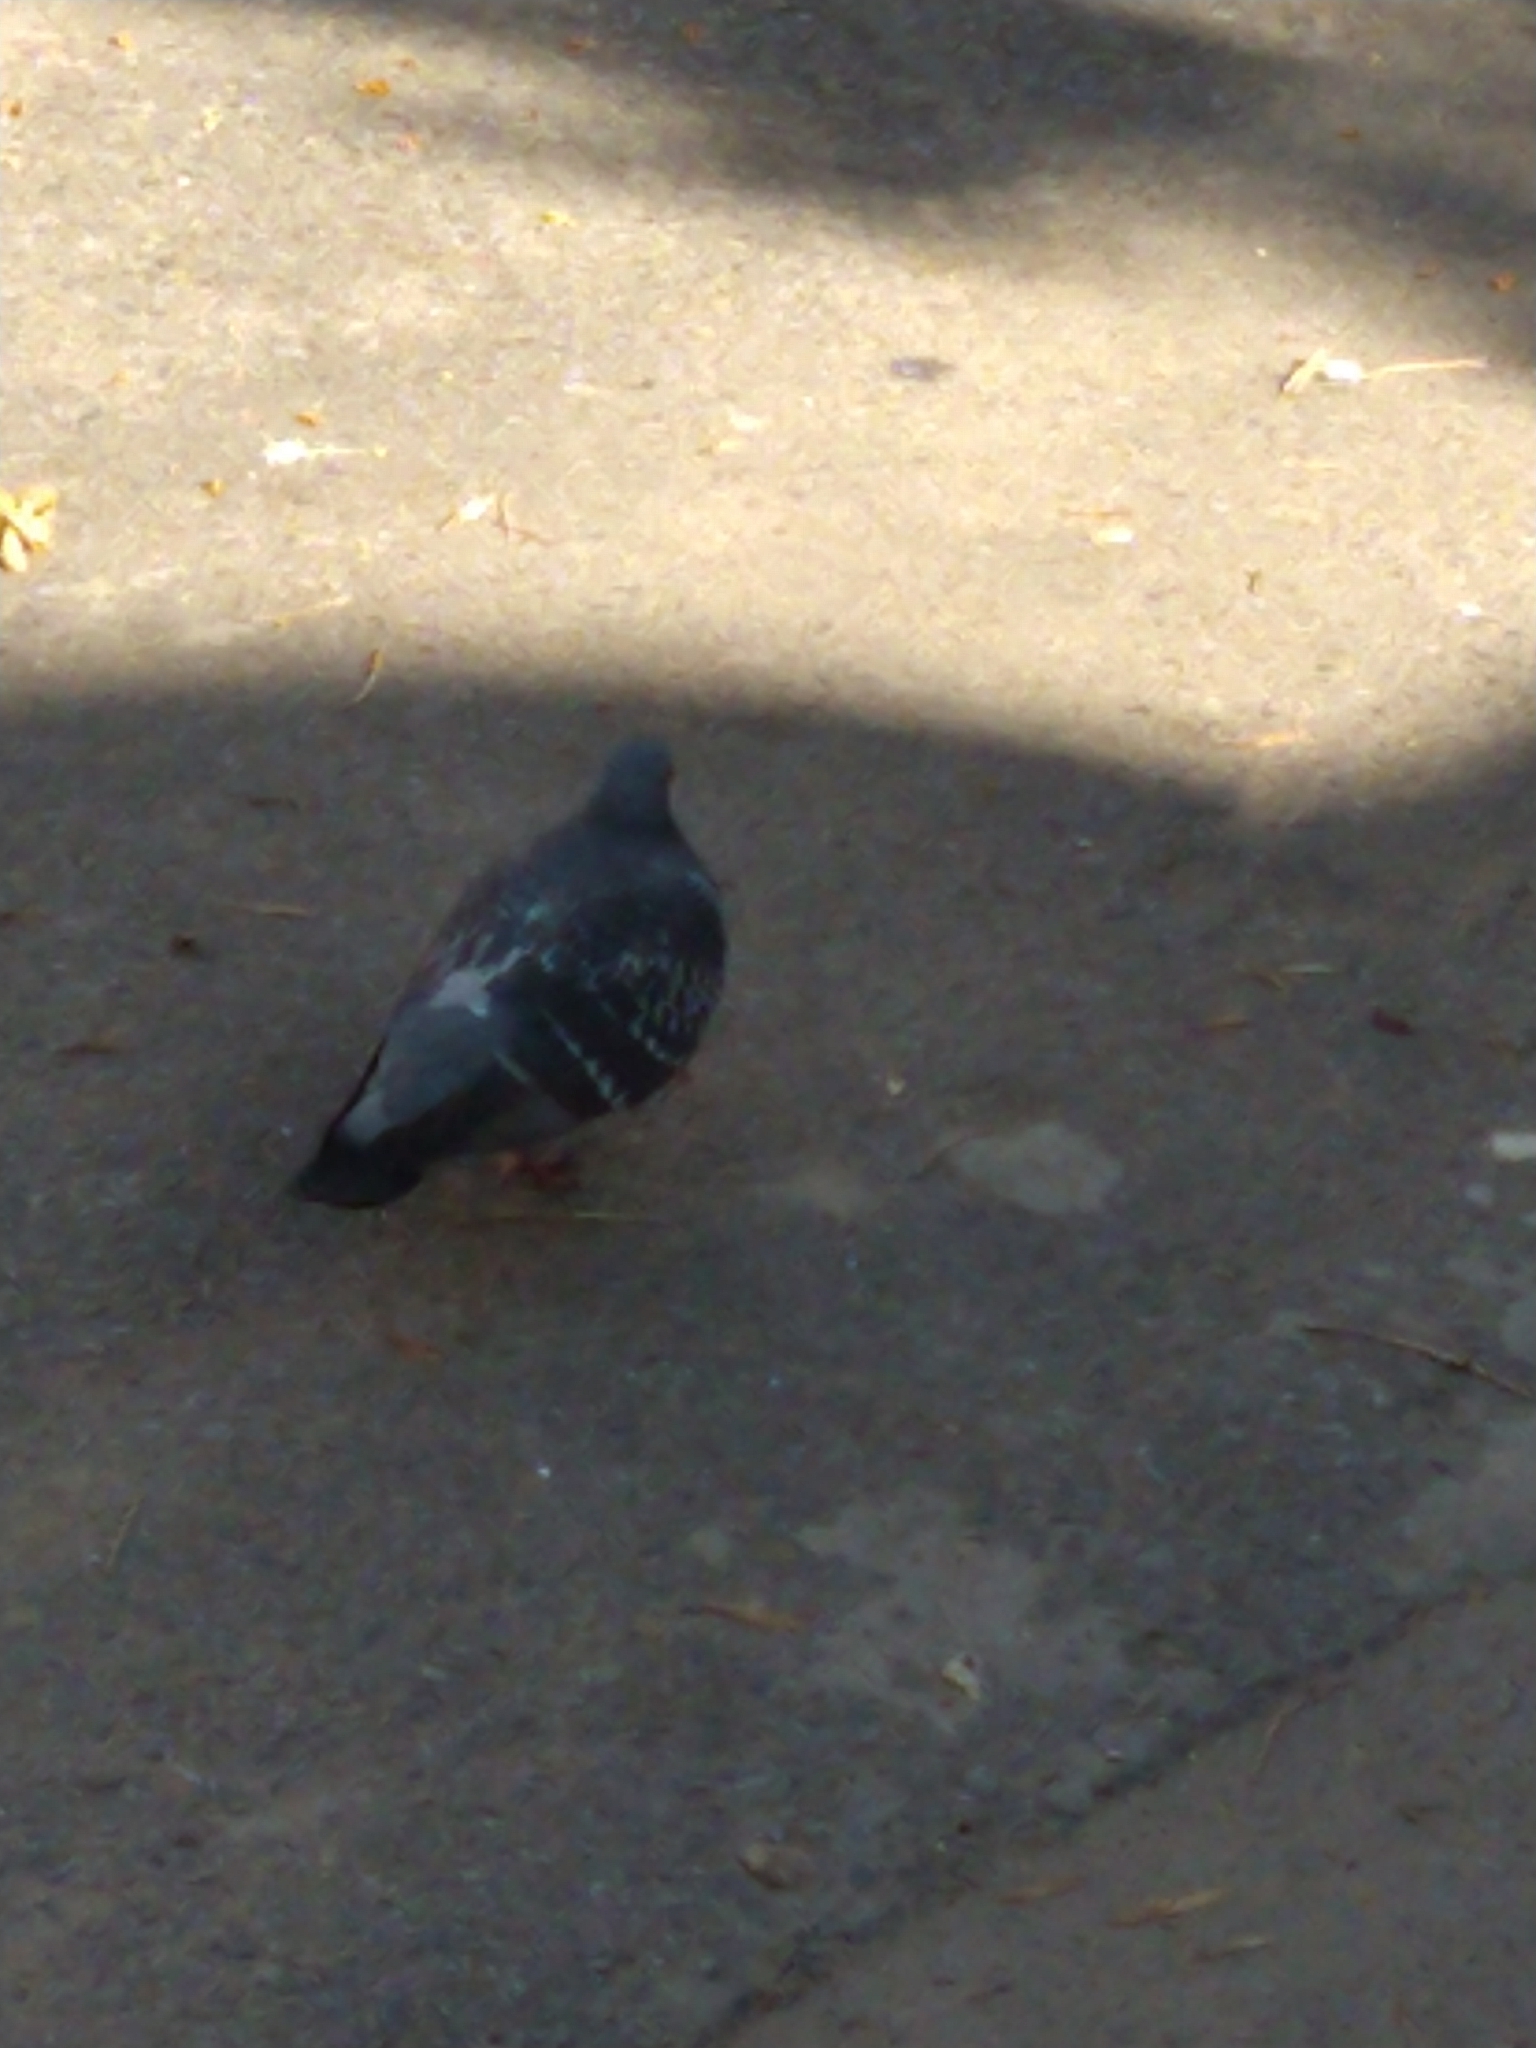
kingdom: Animalia
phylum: Chordata
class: Aves
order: Columbiformes
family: Columbidae
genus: Columba
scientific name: Columba livia
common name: Rock pigeon
